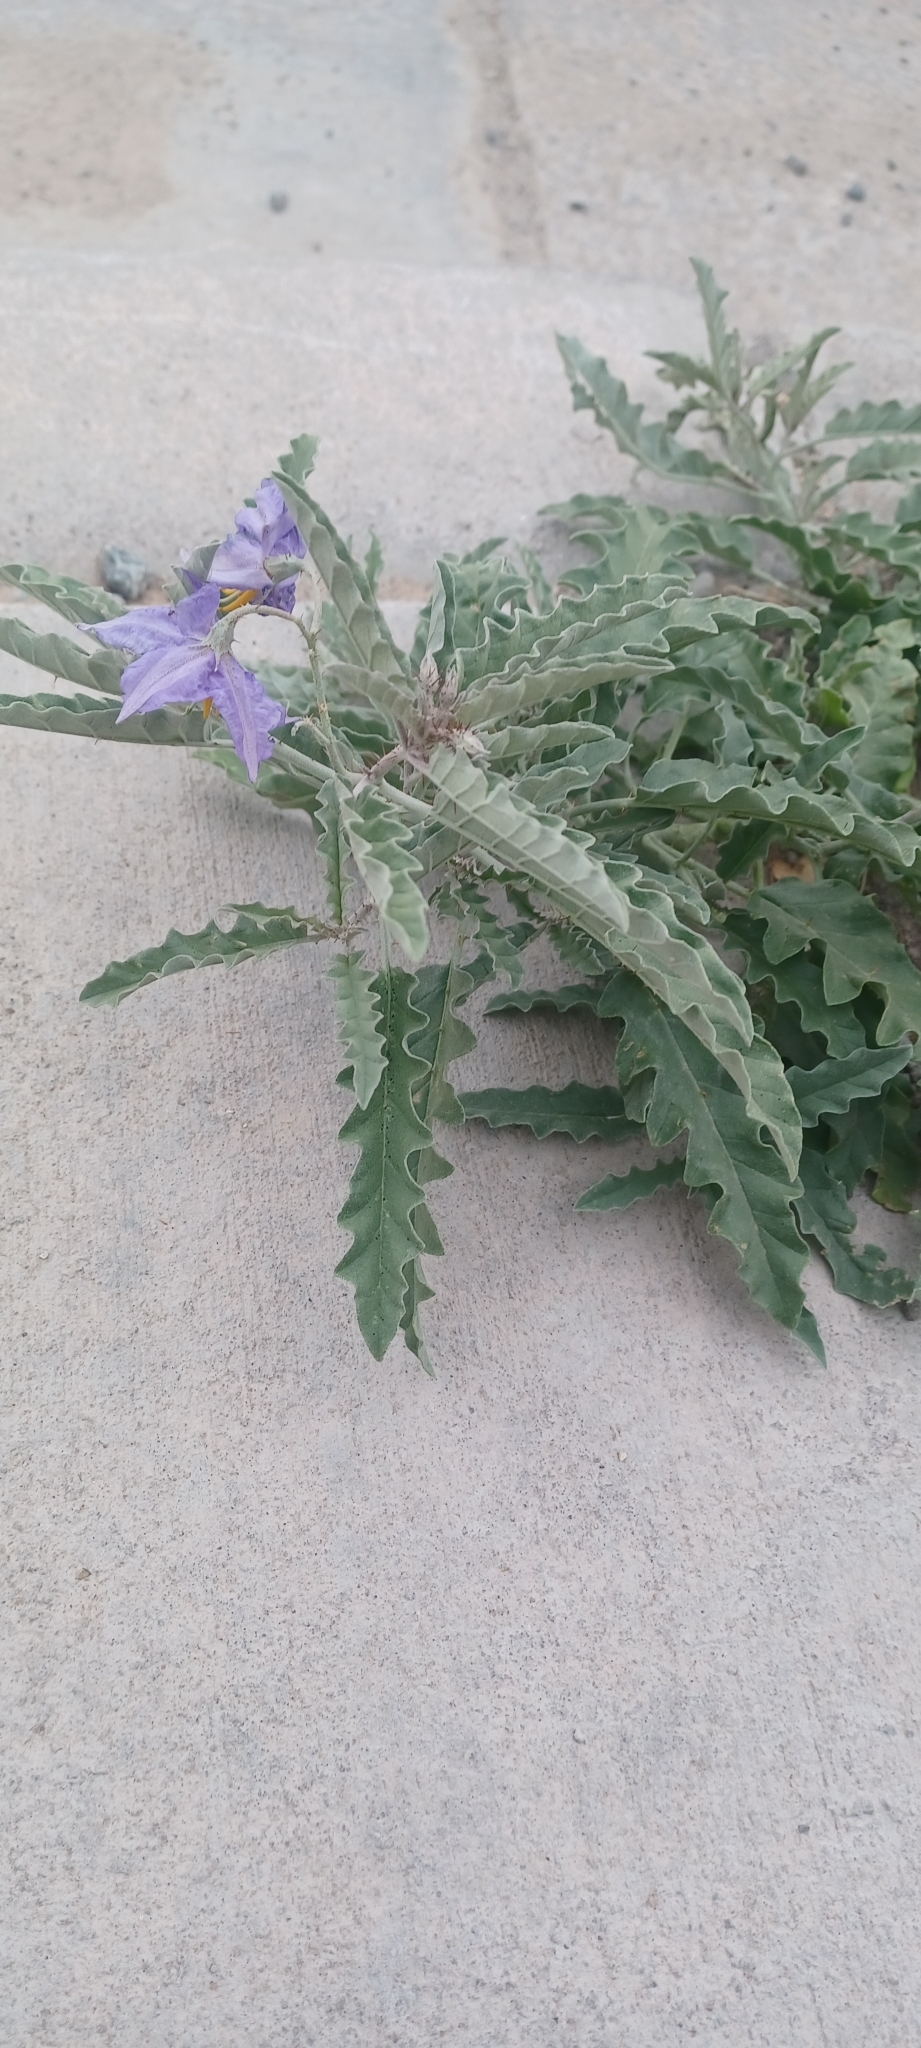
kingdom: Plantae
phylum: Tracheophyta
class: Magnoliopsida
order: Solanales
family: Solanaceae
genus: Solanum
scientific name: Solanum elaeagnifolium
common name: Silverleaf nightshade
